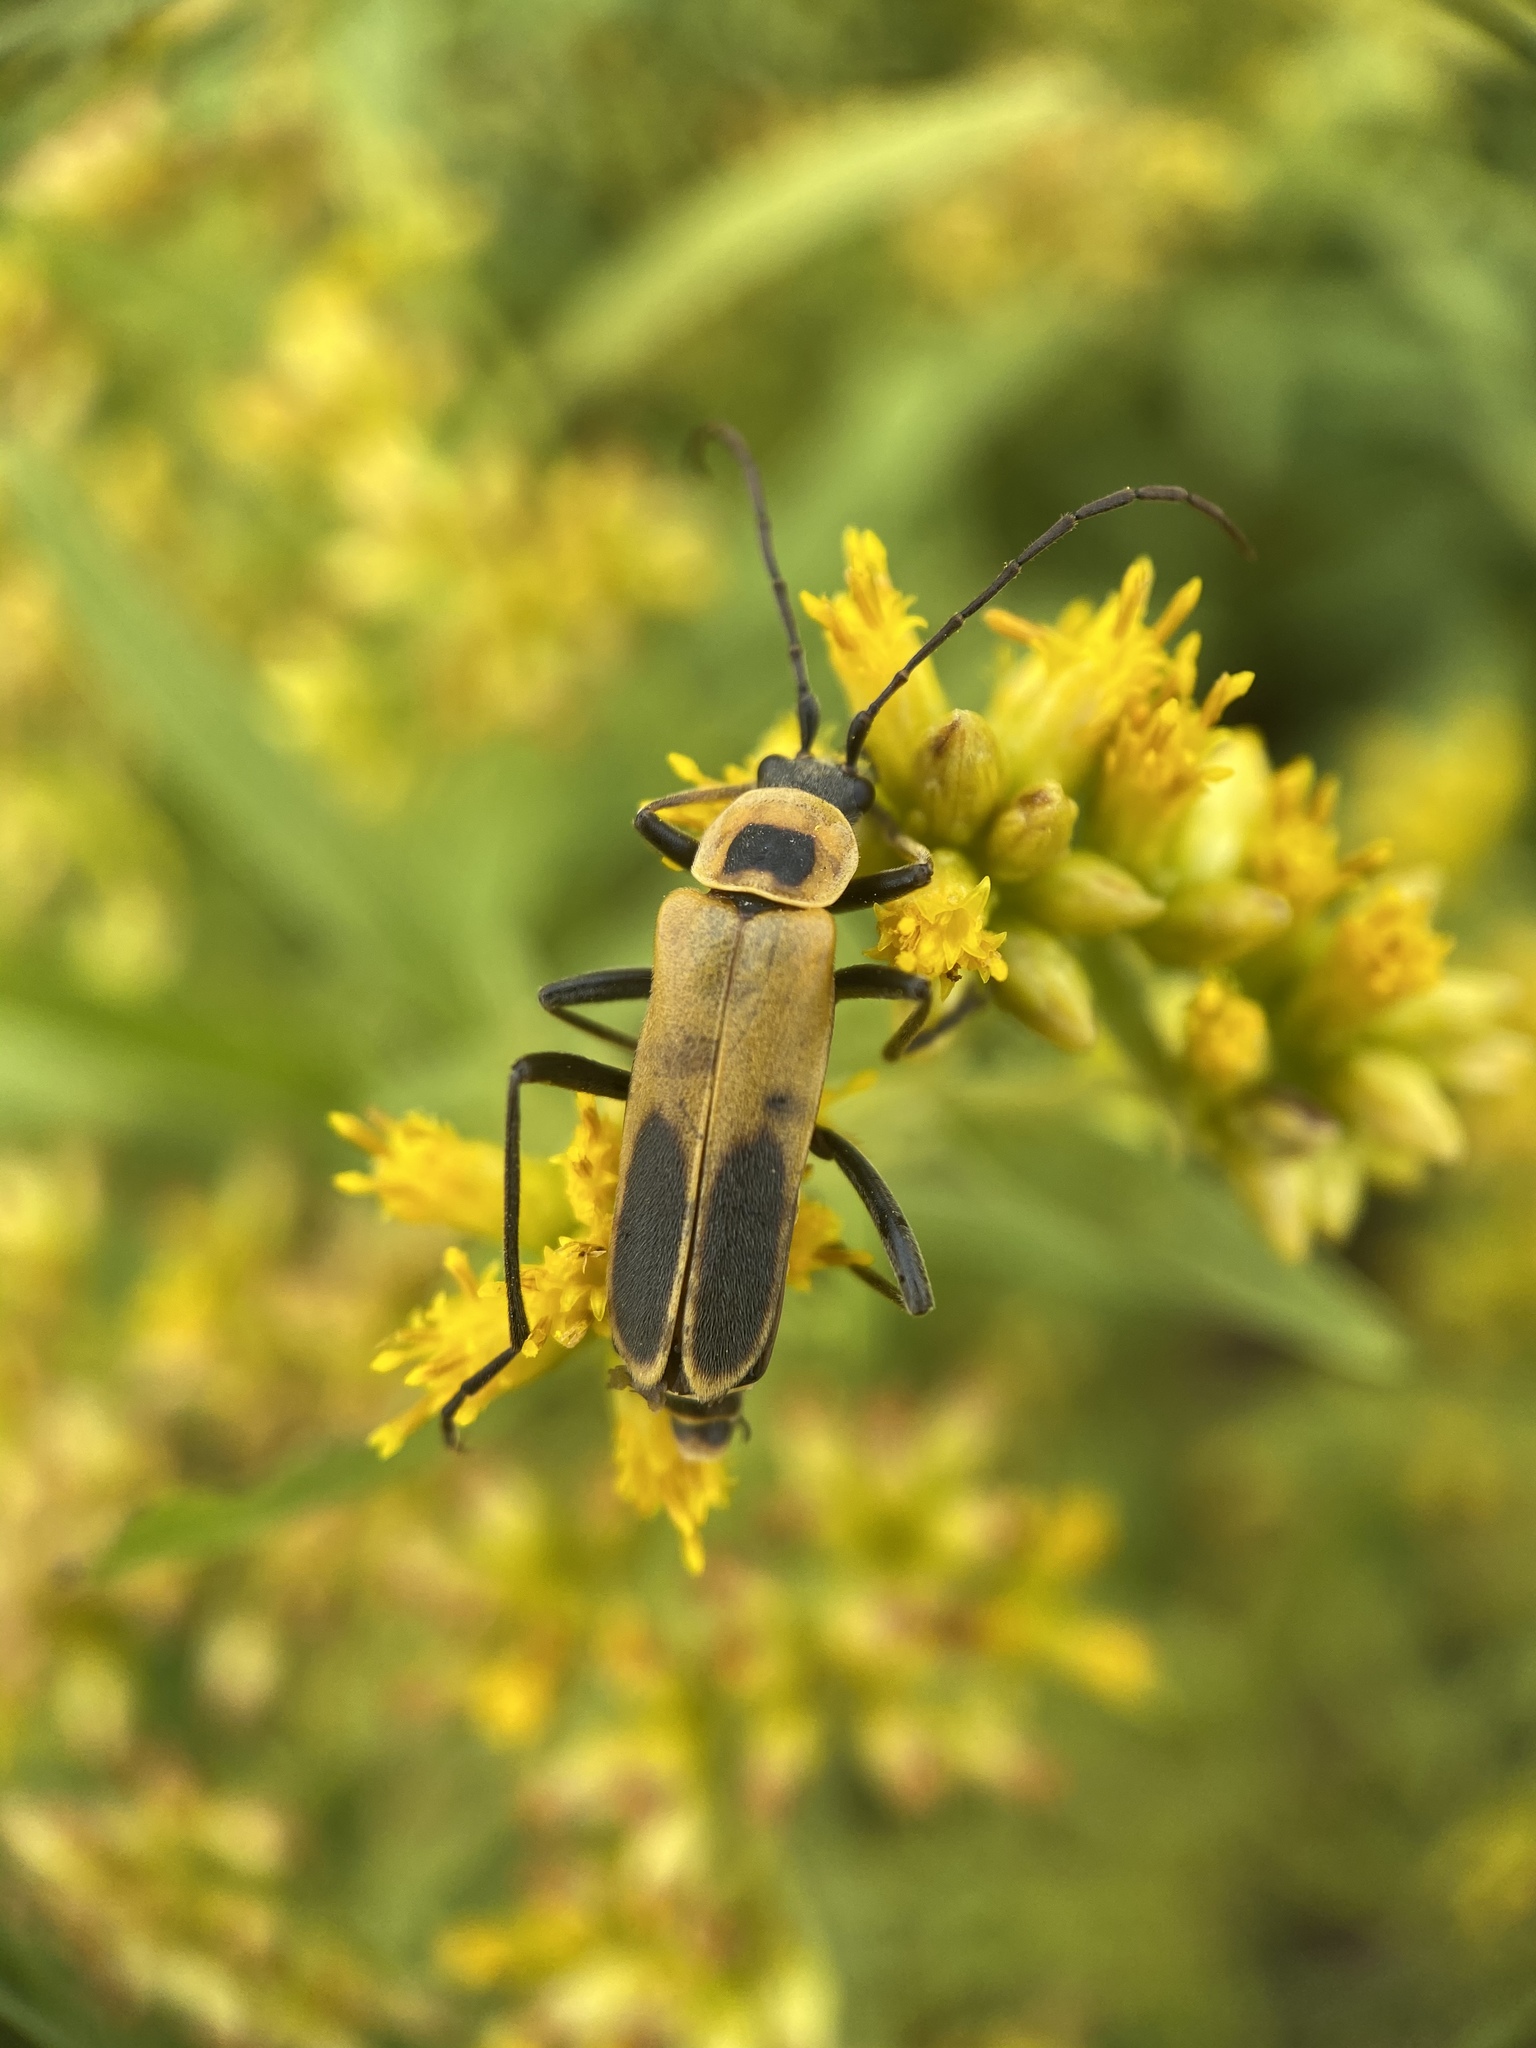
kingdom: Animalia
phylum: Arthropoda
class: Insecta
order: Coleoptera
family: Cantharidae
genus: Chauliognathus
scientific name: Chauliognathus pensylvanicus
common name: Goldenrod soldier beetle
